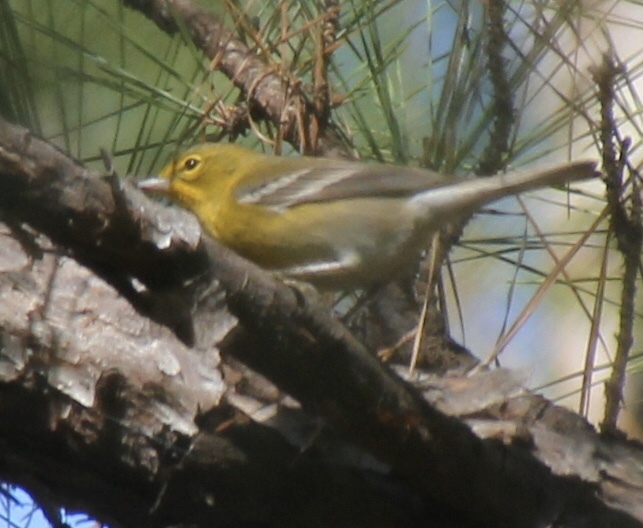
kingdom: Animalia
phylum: Chordata
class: Aves
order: Passeriformes
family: Parulidae
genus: Setophaga
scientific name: Setophaga pinus
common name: Pine warbler
